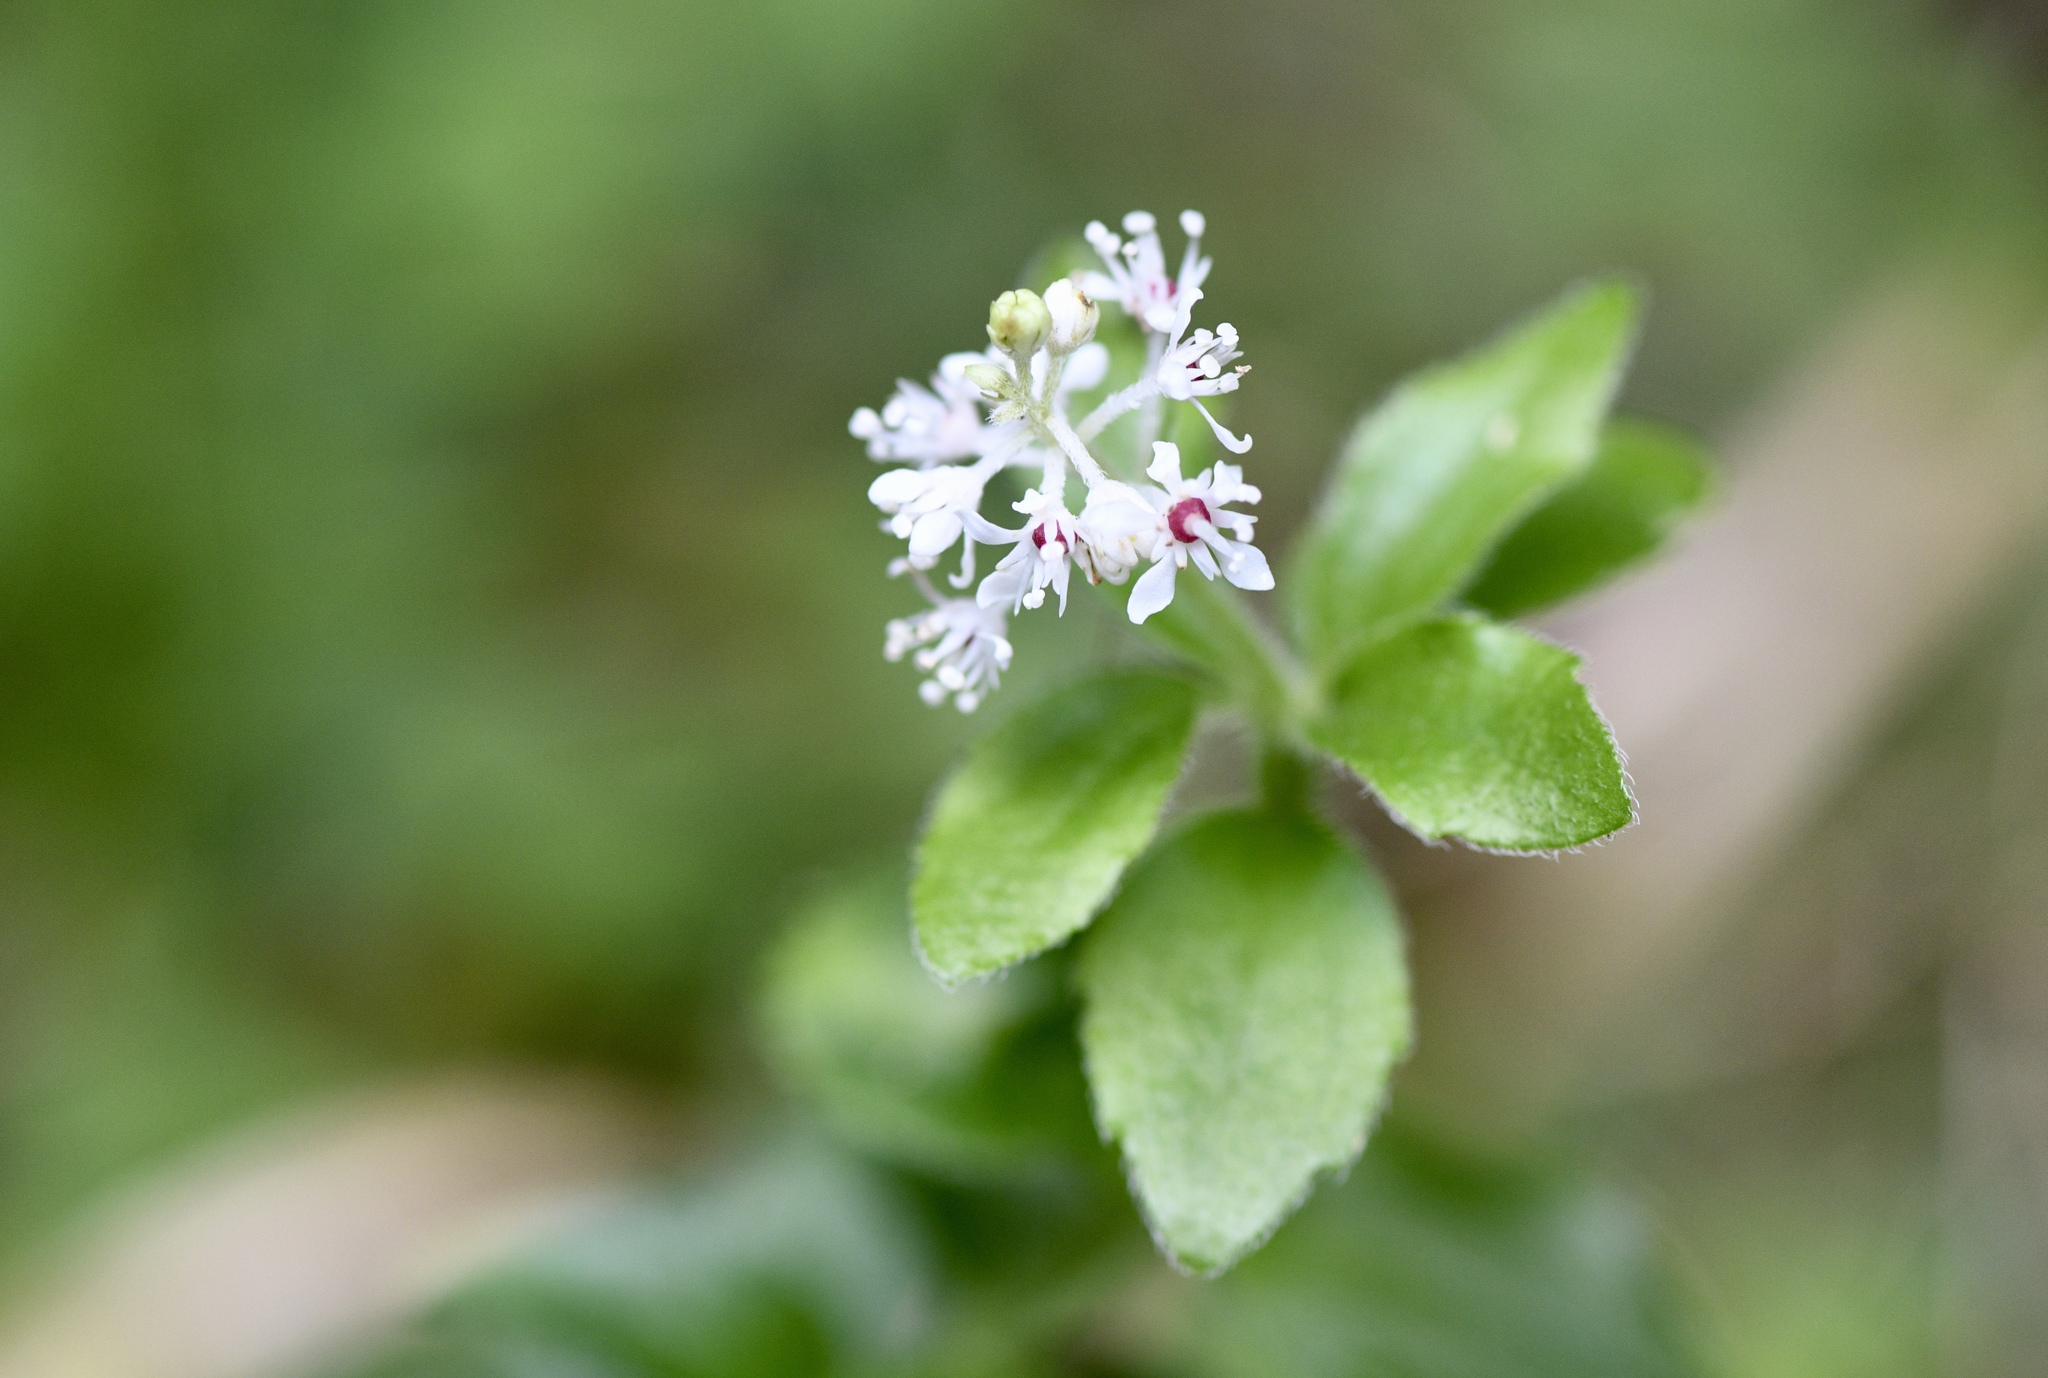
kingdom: Plantae
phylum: Tracheophyta
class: Magnoliopsida
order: Cornales
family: Hydrangeaceae
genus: Whipplea
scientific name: Whipplea modesta
